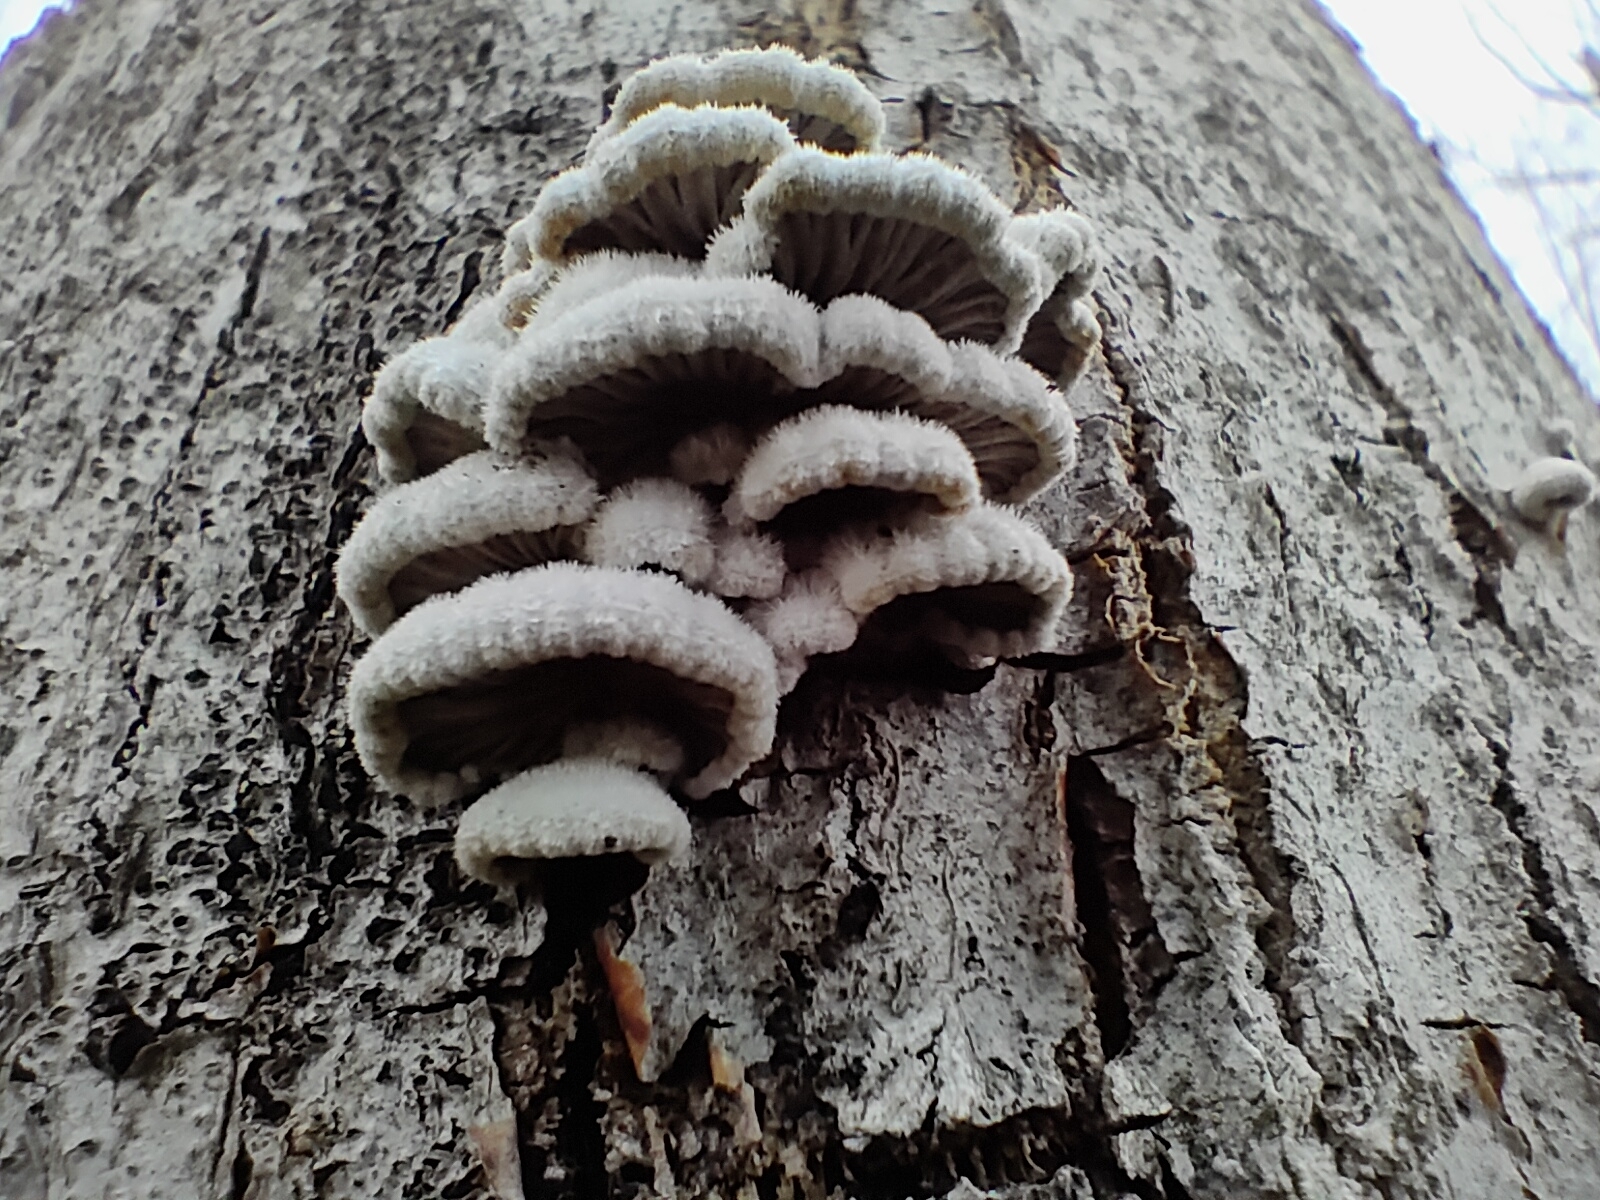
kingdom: Fungi
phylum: Basidiomycota
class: Agaricomycetes
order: Agaricales
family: Schizophyllaceae
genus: Schizophyllum
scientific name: Schizophyllum commune
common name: Common porecrust
